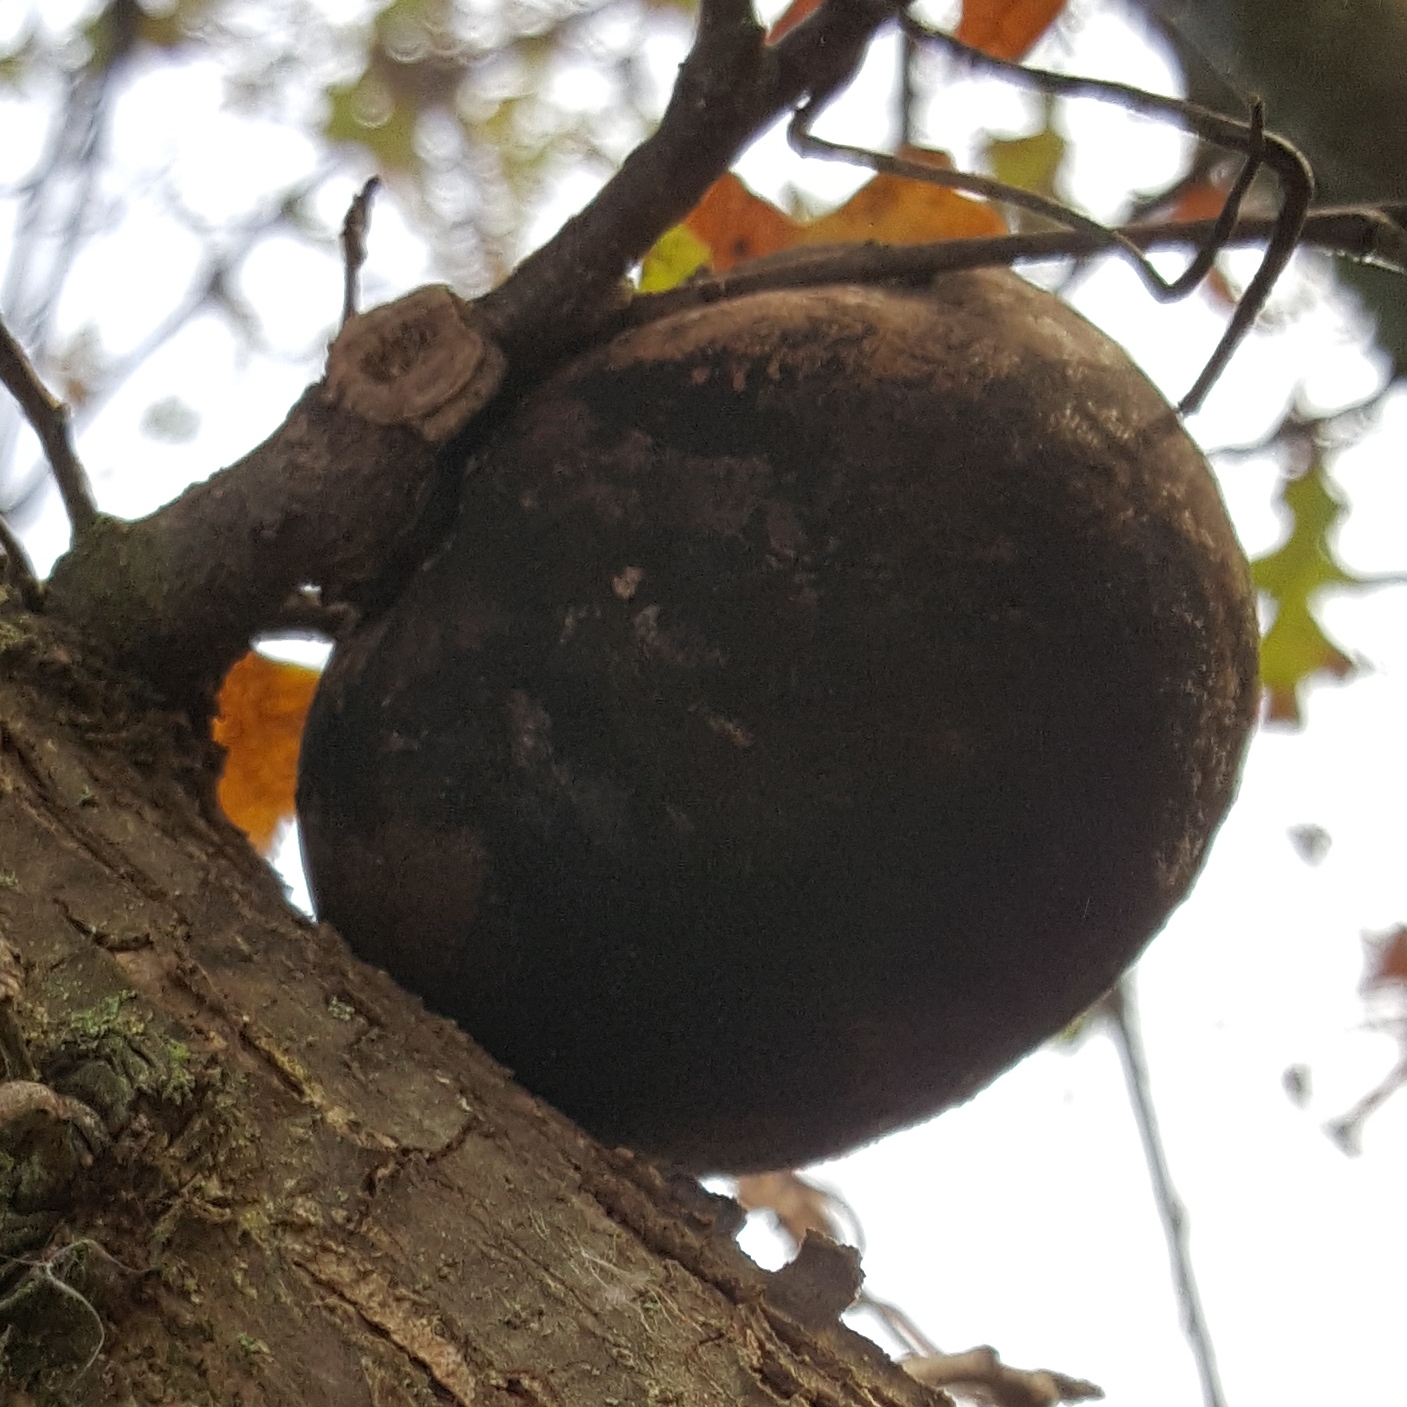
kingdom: Animalia
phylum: Arthropoda
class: Insecta
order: Hymenoptera
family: Cynipidae
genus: Andricus
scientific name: Andricus quercuscalifornicus
